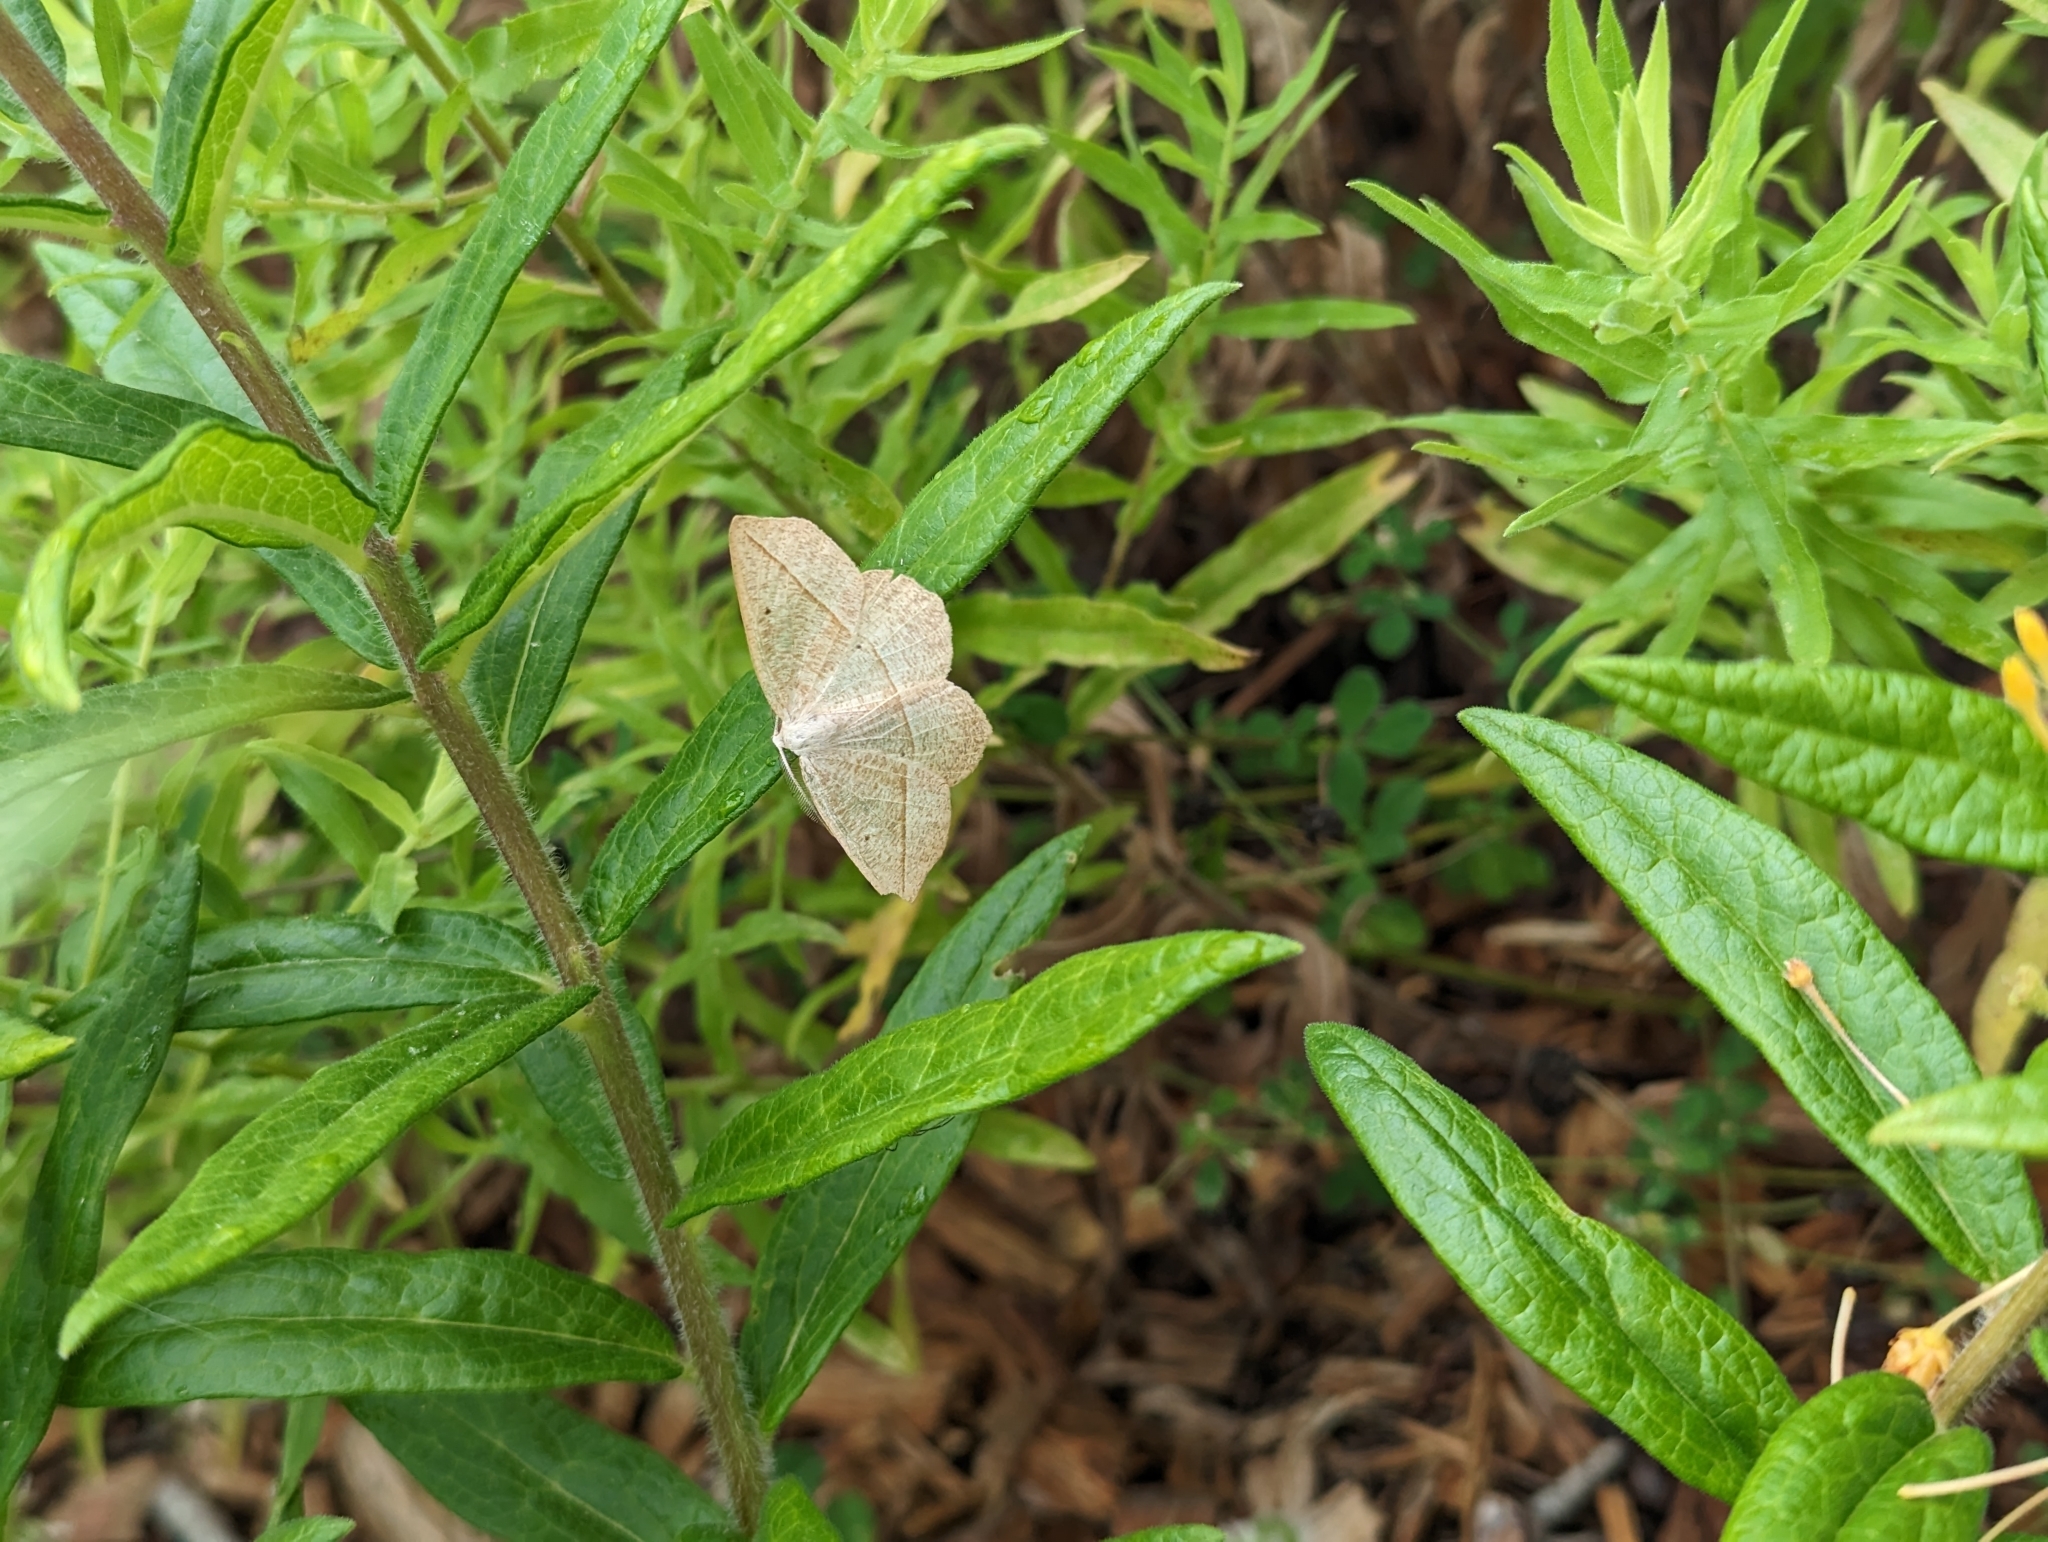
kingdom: Animalia
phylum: Arthropoda
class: Insecta
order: Lepidoptera
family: Geometridae
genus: Eusarca
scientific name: Eusarca confusaria
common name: Confused eusarca
